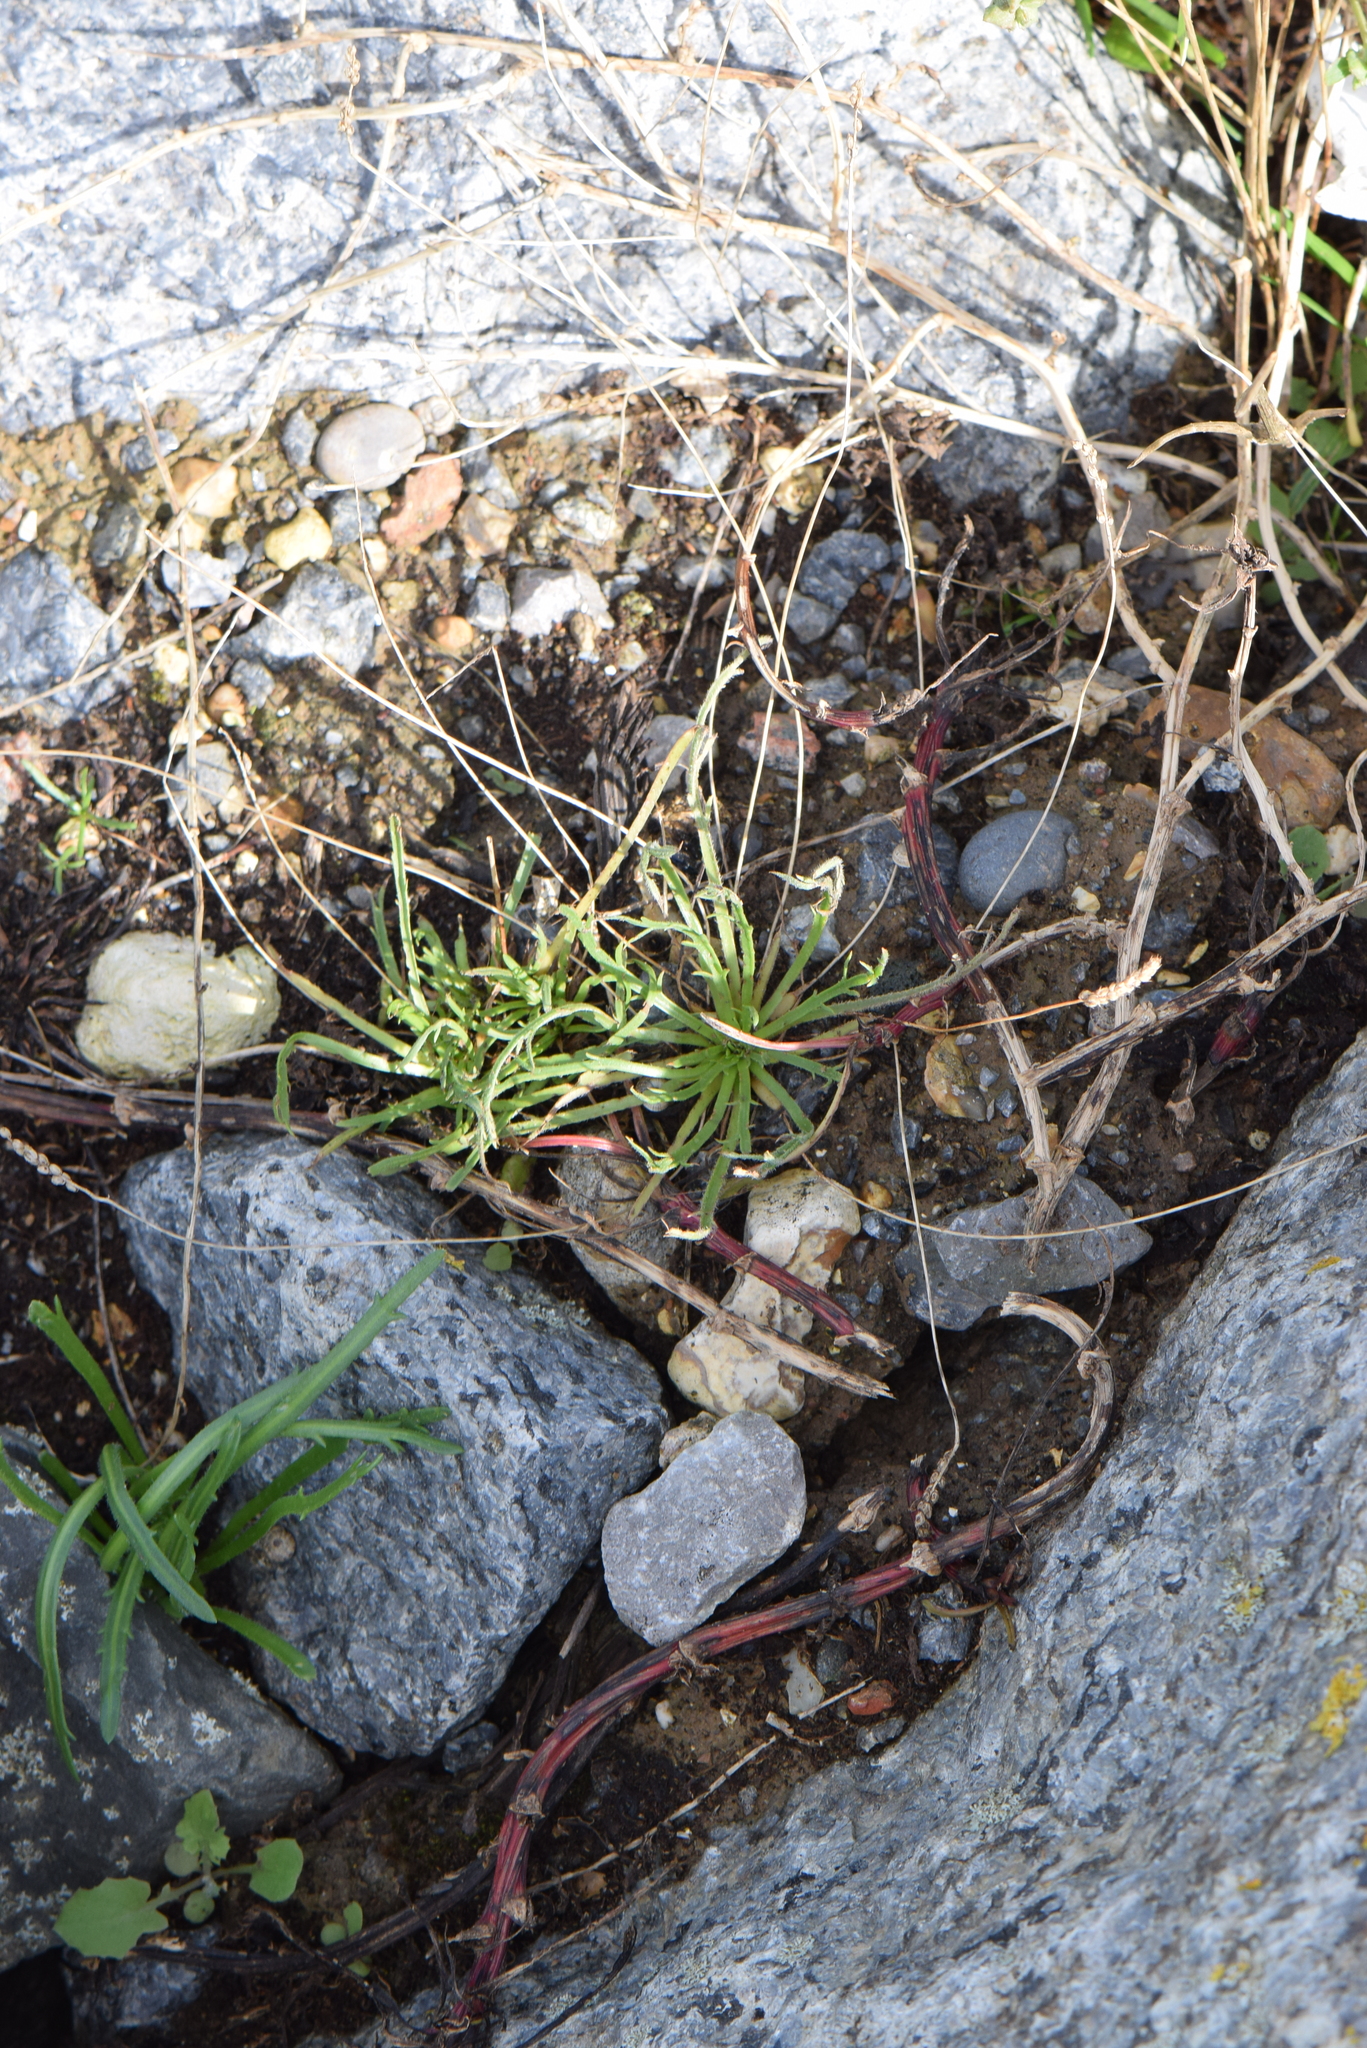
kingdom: Plantae
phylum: Tracheophyta
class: Magnoliopsida
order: Lamiales
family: Plantaginaceae
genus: Plantago
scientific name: Plantago coronopus
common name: Buck's-horn plantain
